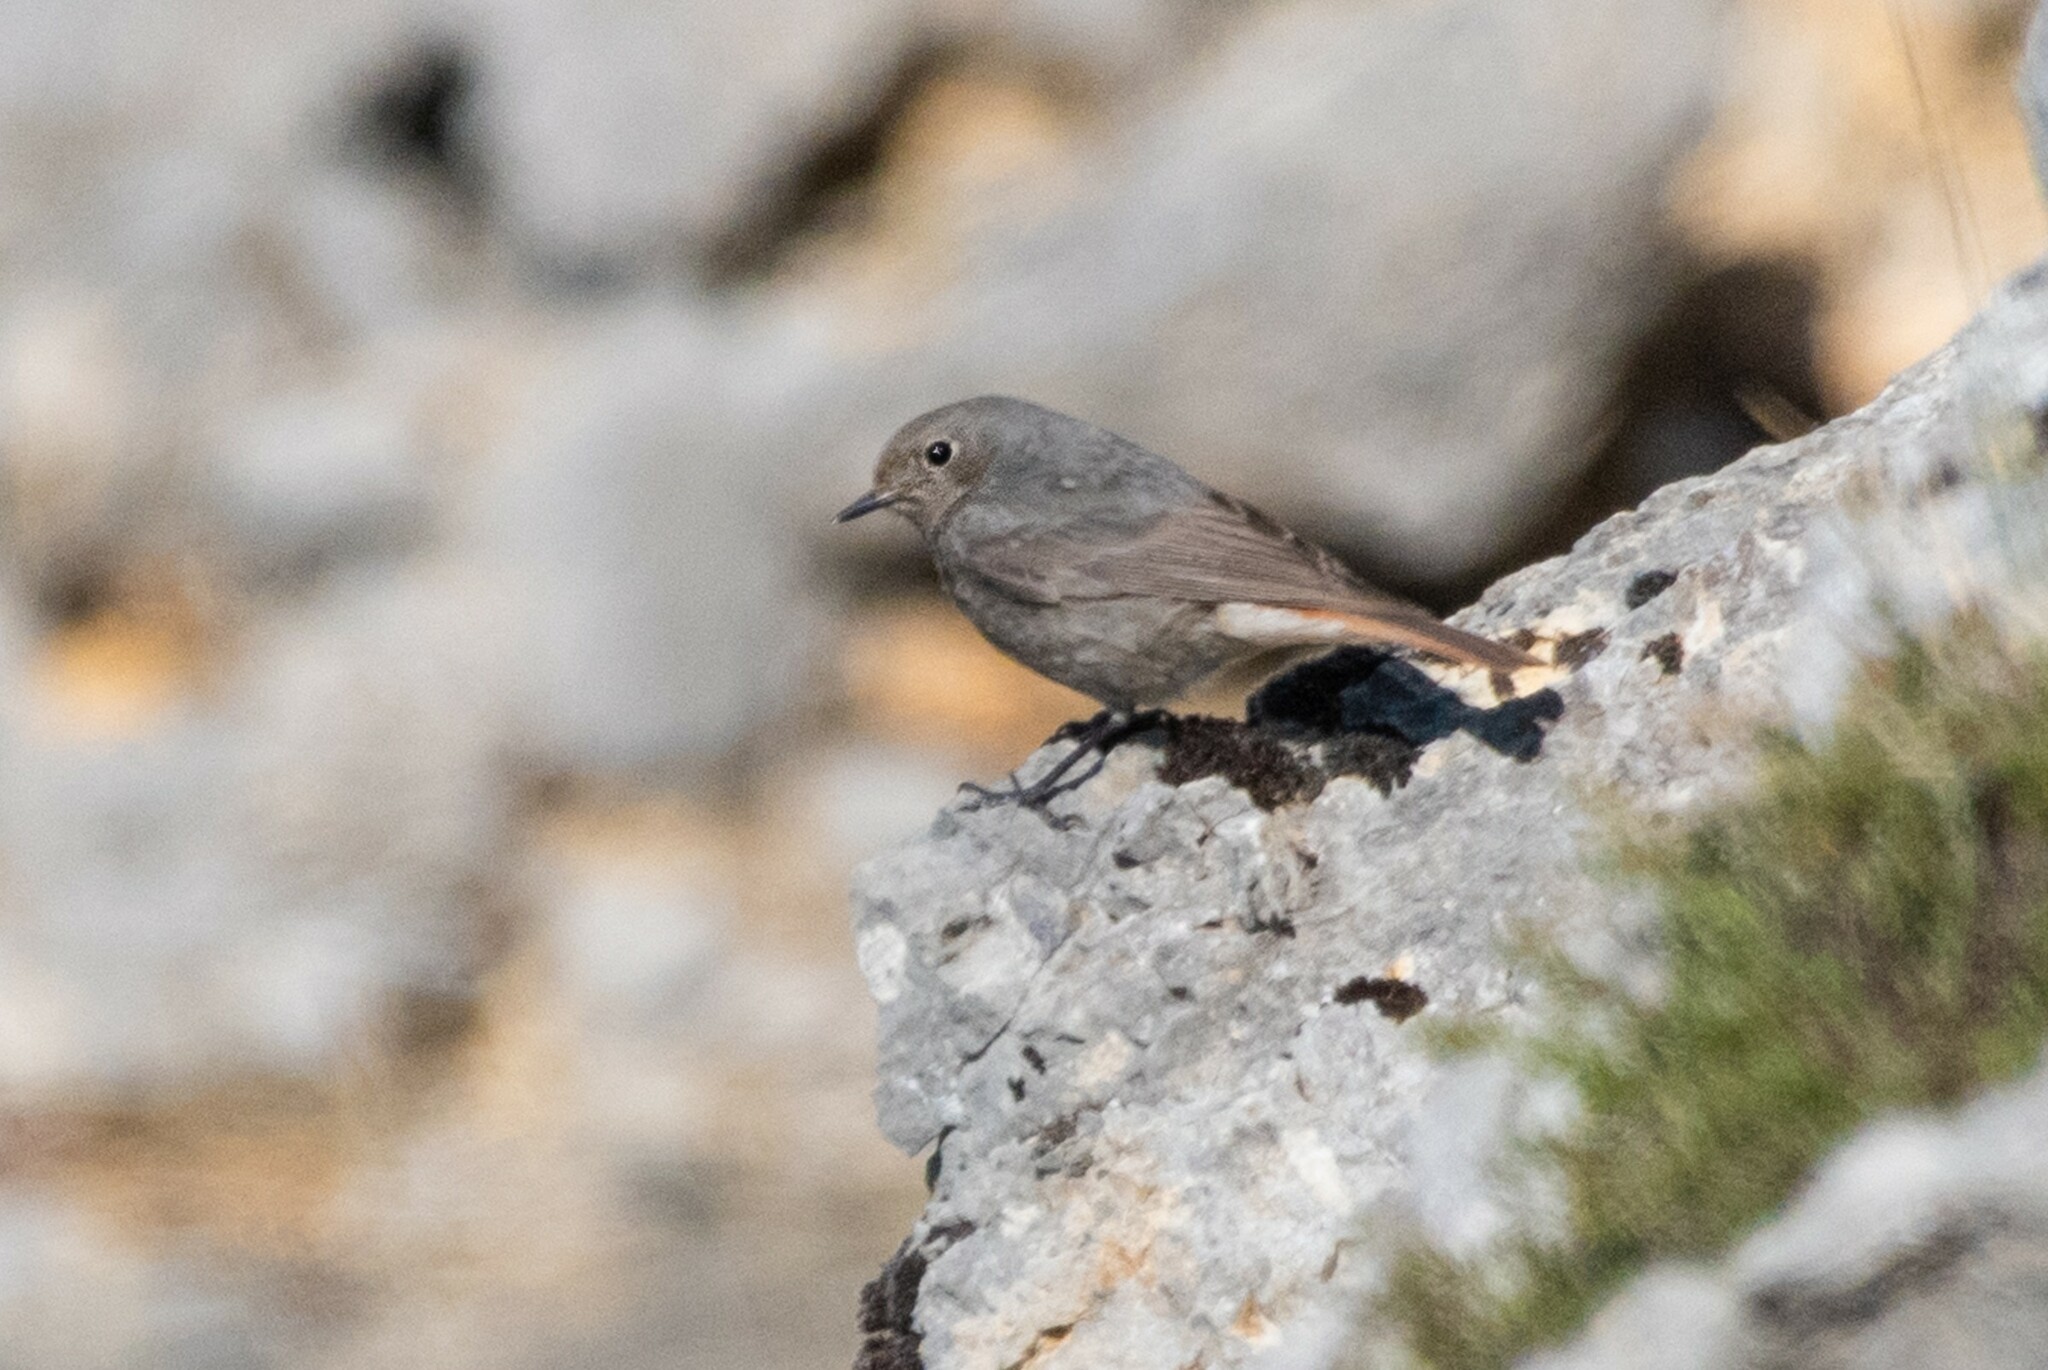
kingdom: Animalia
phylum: Chordata
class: Aves
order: Passeriformes
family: Muscicapidae
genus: Phoenicurus
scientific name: Phoenicurus ochruros
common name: Black redstart
